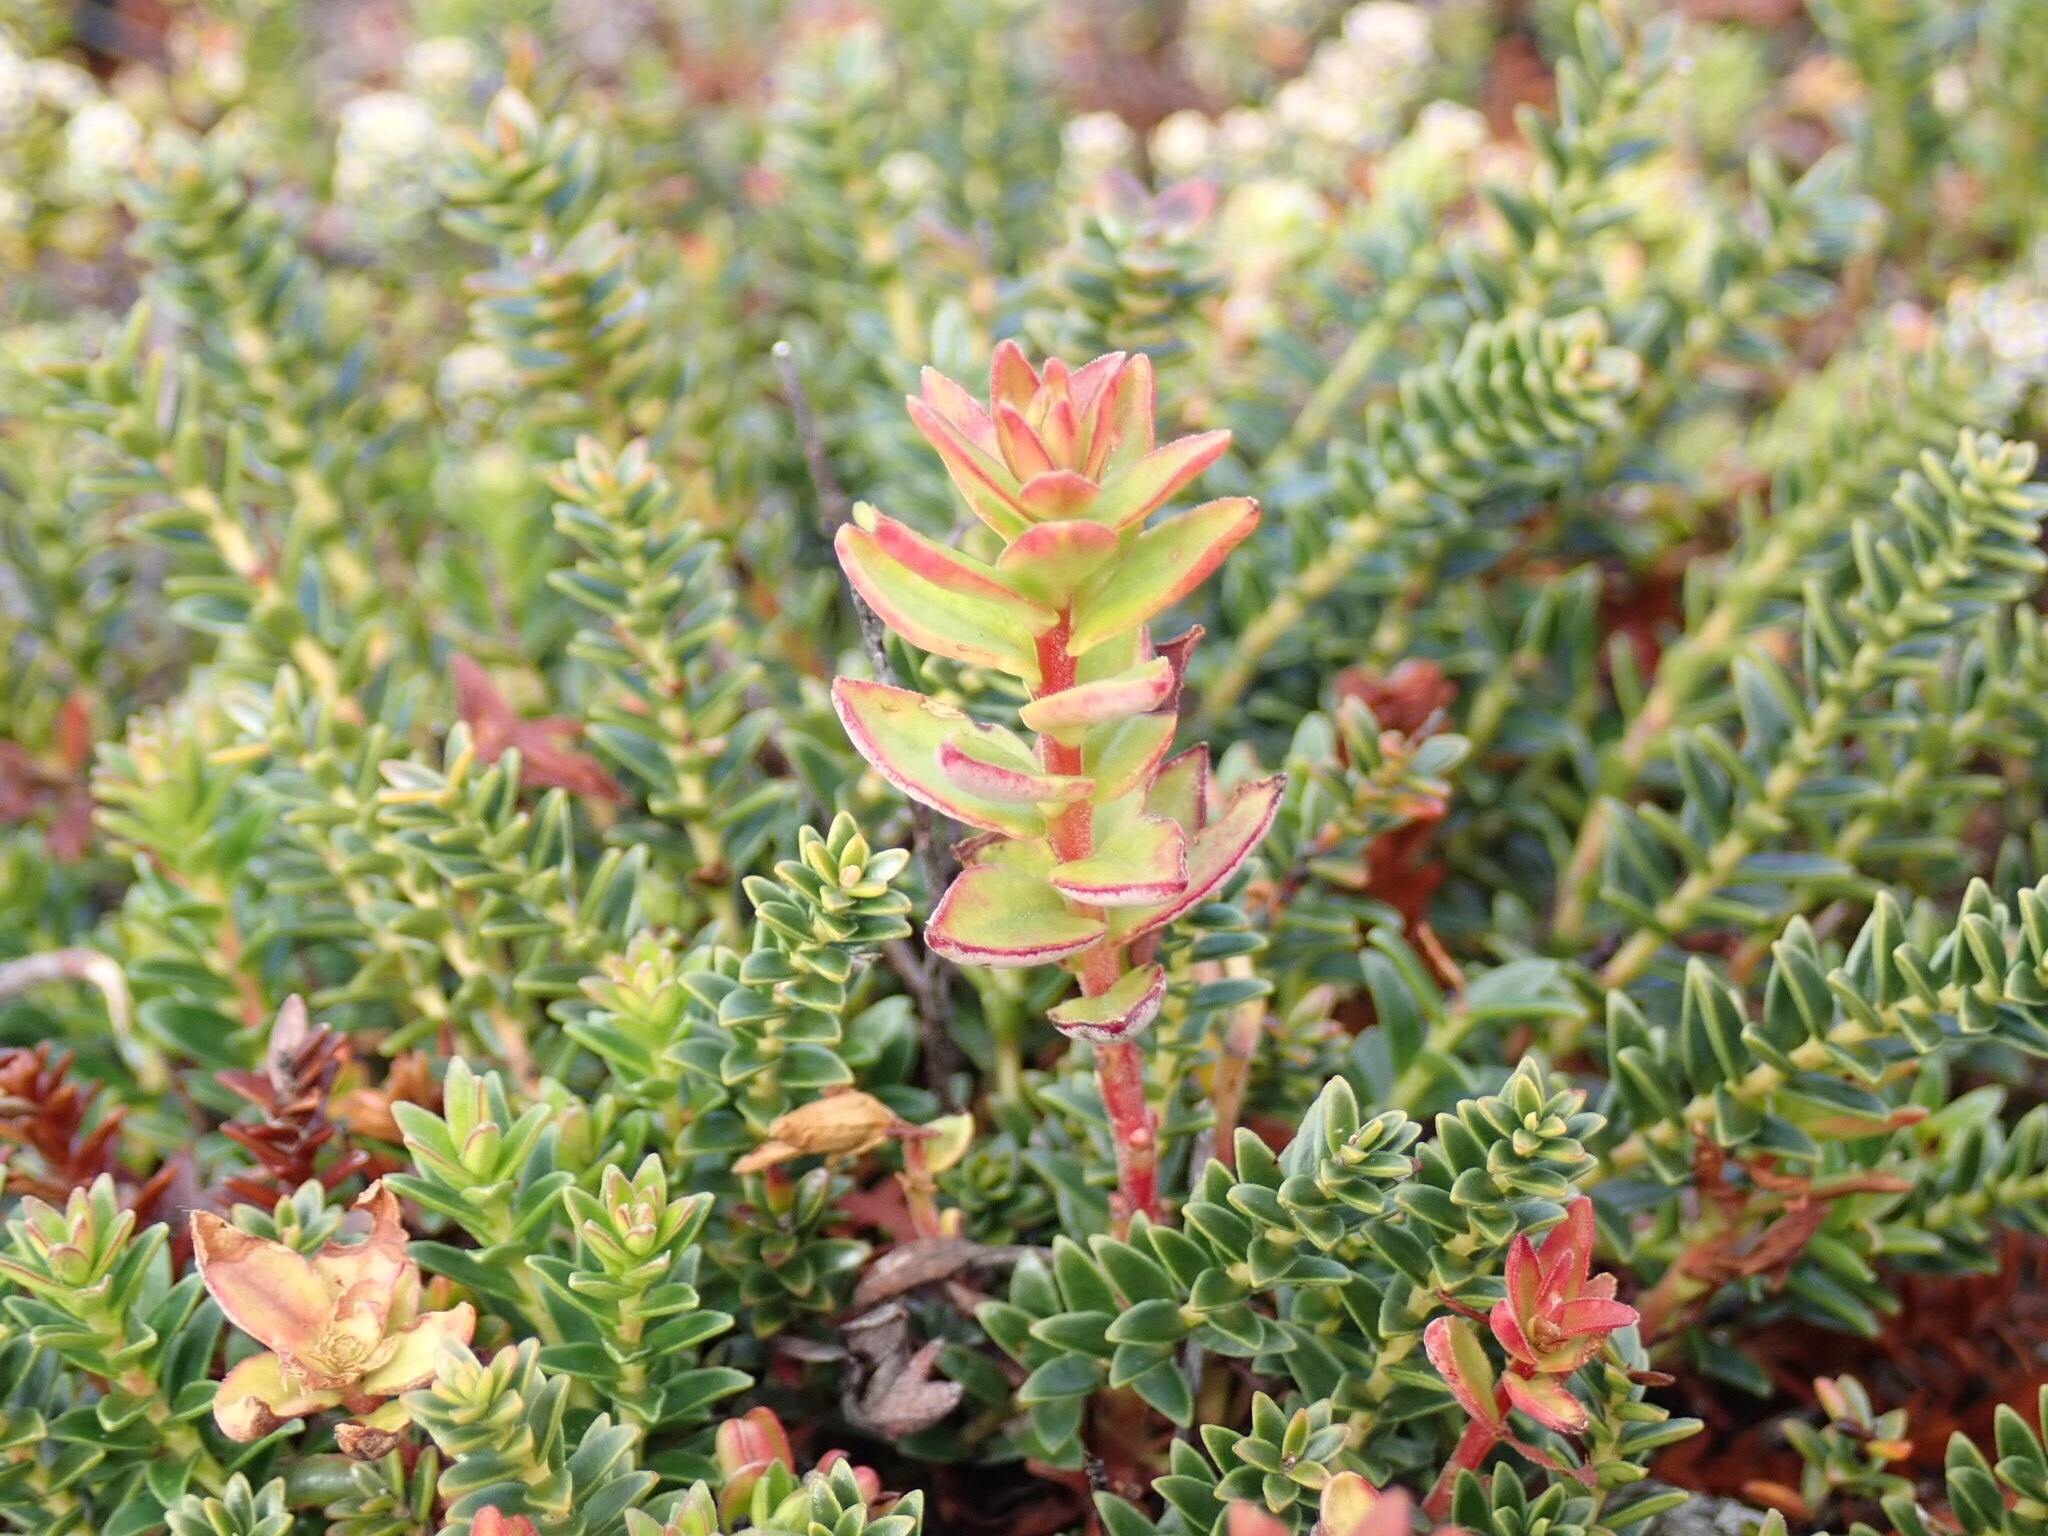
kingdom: Plantae
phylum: Tracheophyta
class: Magnoliopsida
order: Ericales
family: Ericaceae
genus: Gaultheria
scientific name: Gaultheria pumila
